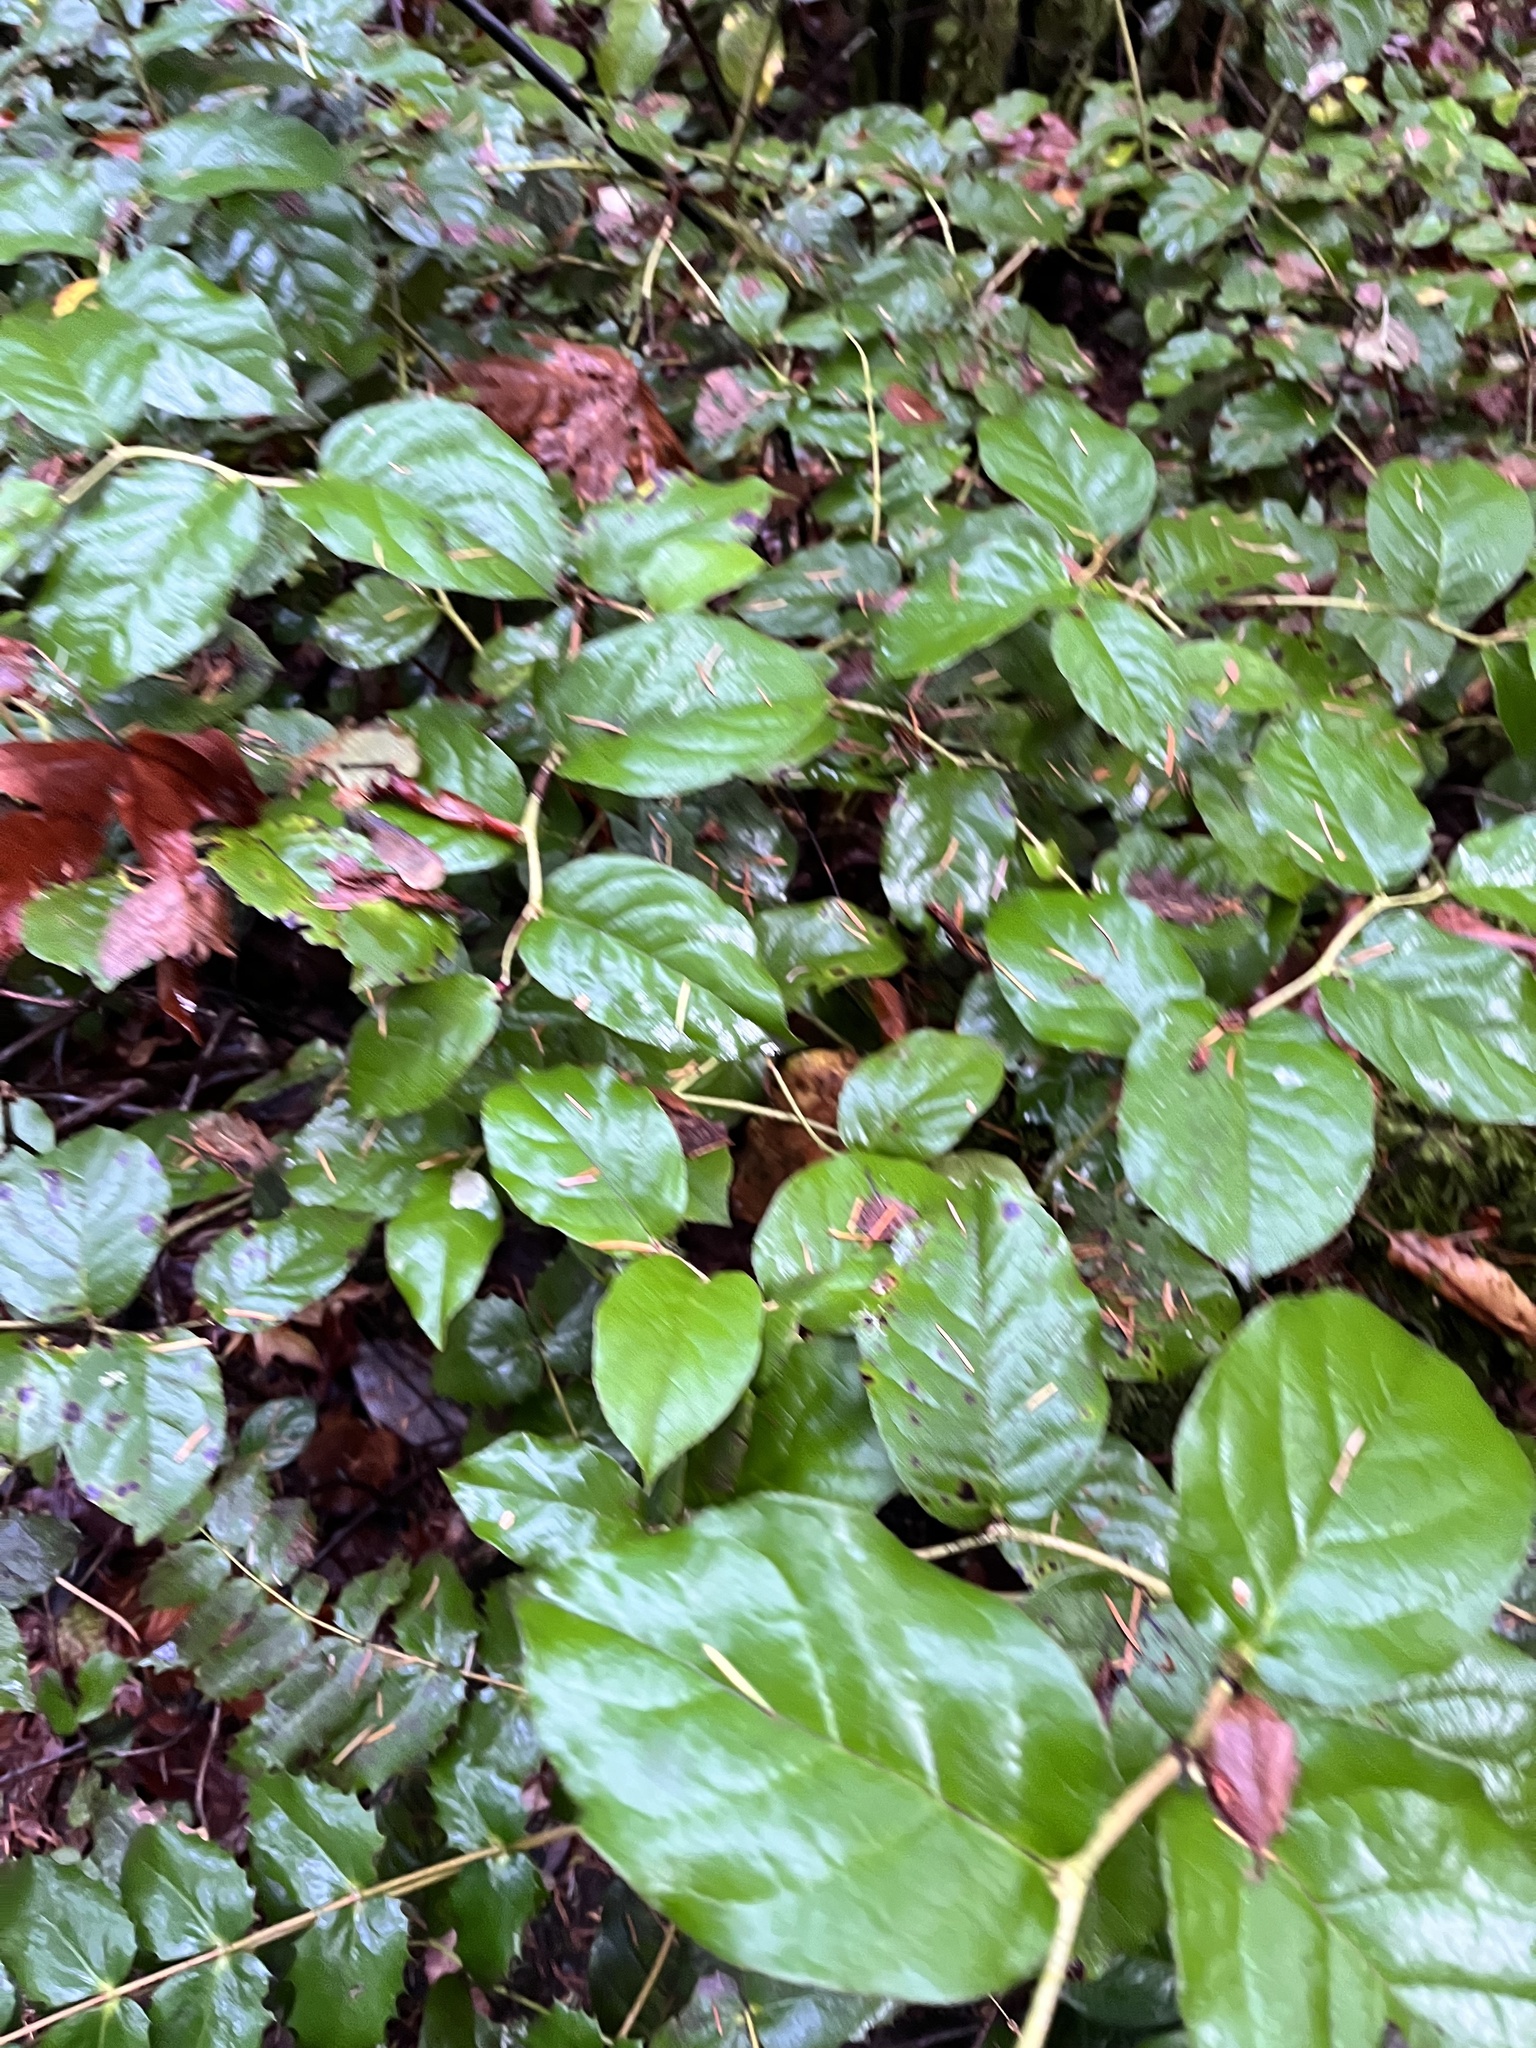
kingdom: Plantae
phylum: Tracheophyta
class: Magnoliopsida
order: Ericales
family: Ericaceae
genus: Gaultheria
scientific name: Gaultheria shallon
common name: Shallon
